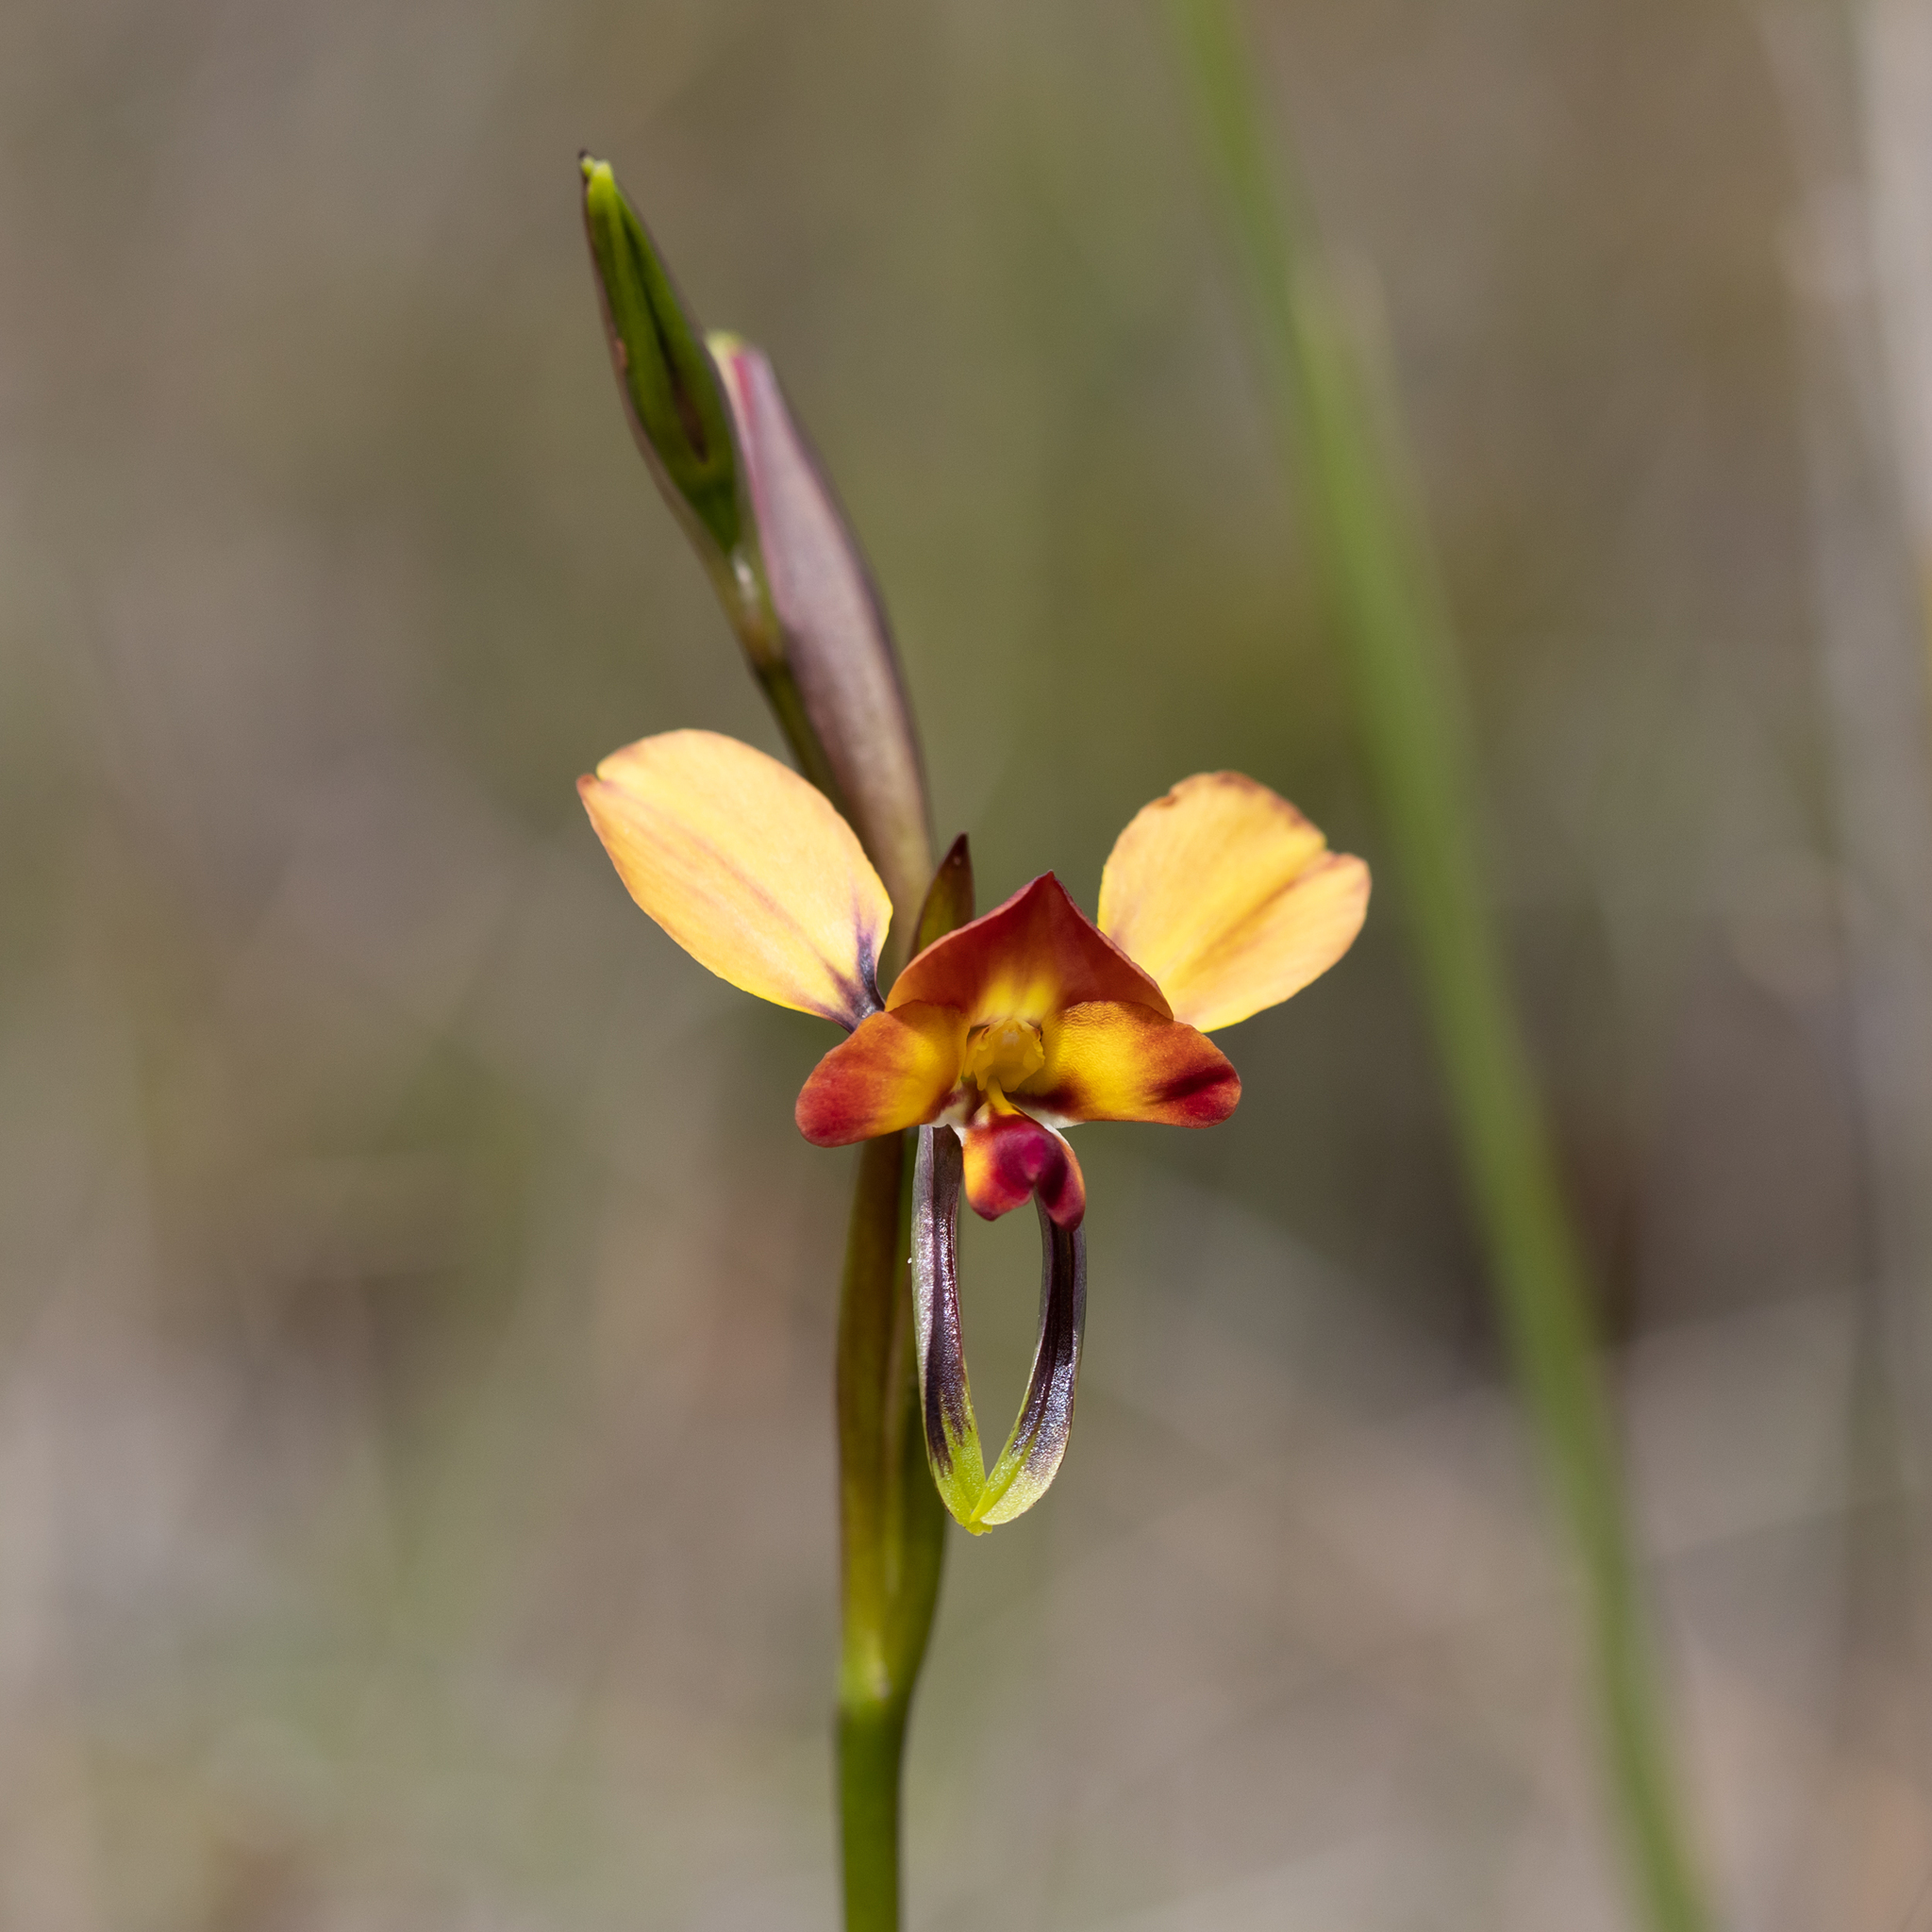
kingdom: Plantae
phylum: Tracheophyta
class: Liliopsida
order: Asparagales
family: Orchidaceae
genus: Diuris
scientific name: Diuris orientis
